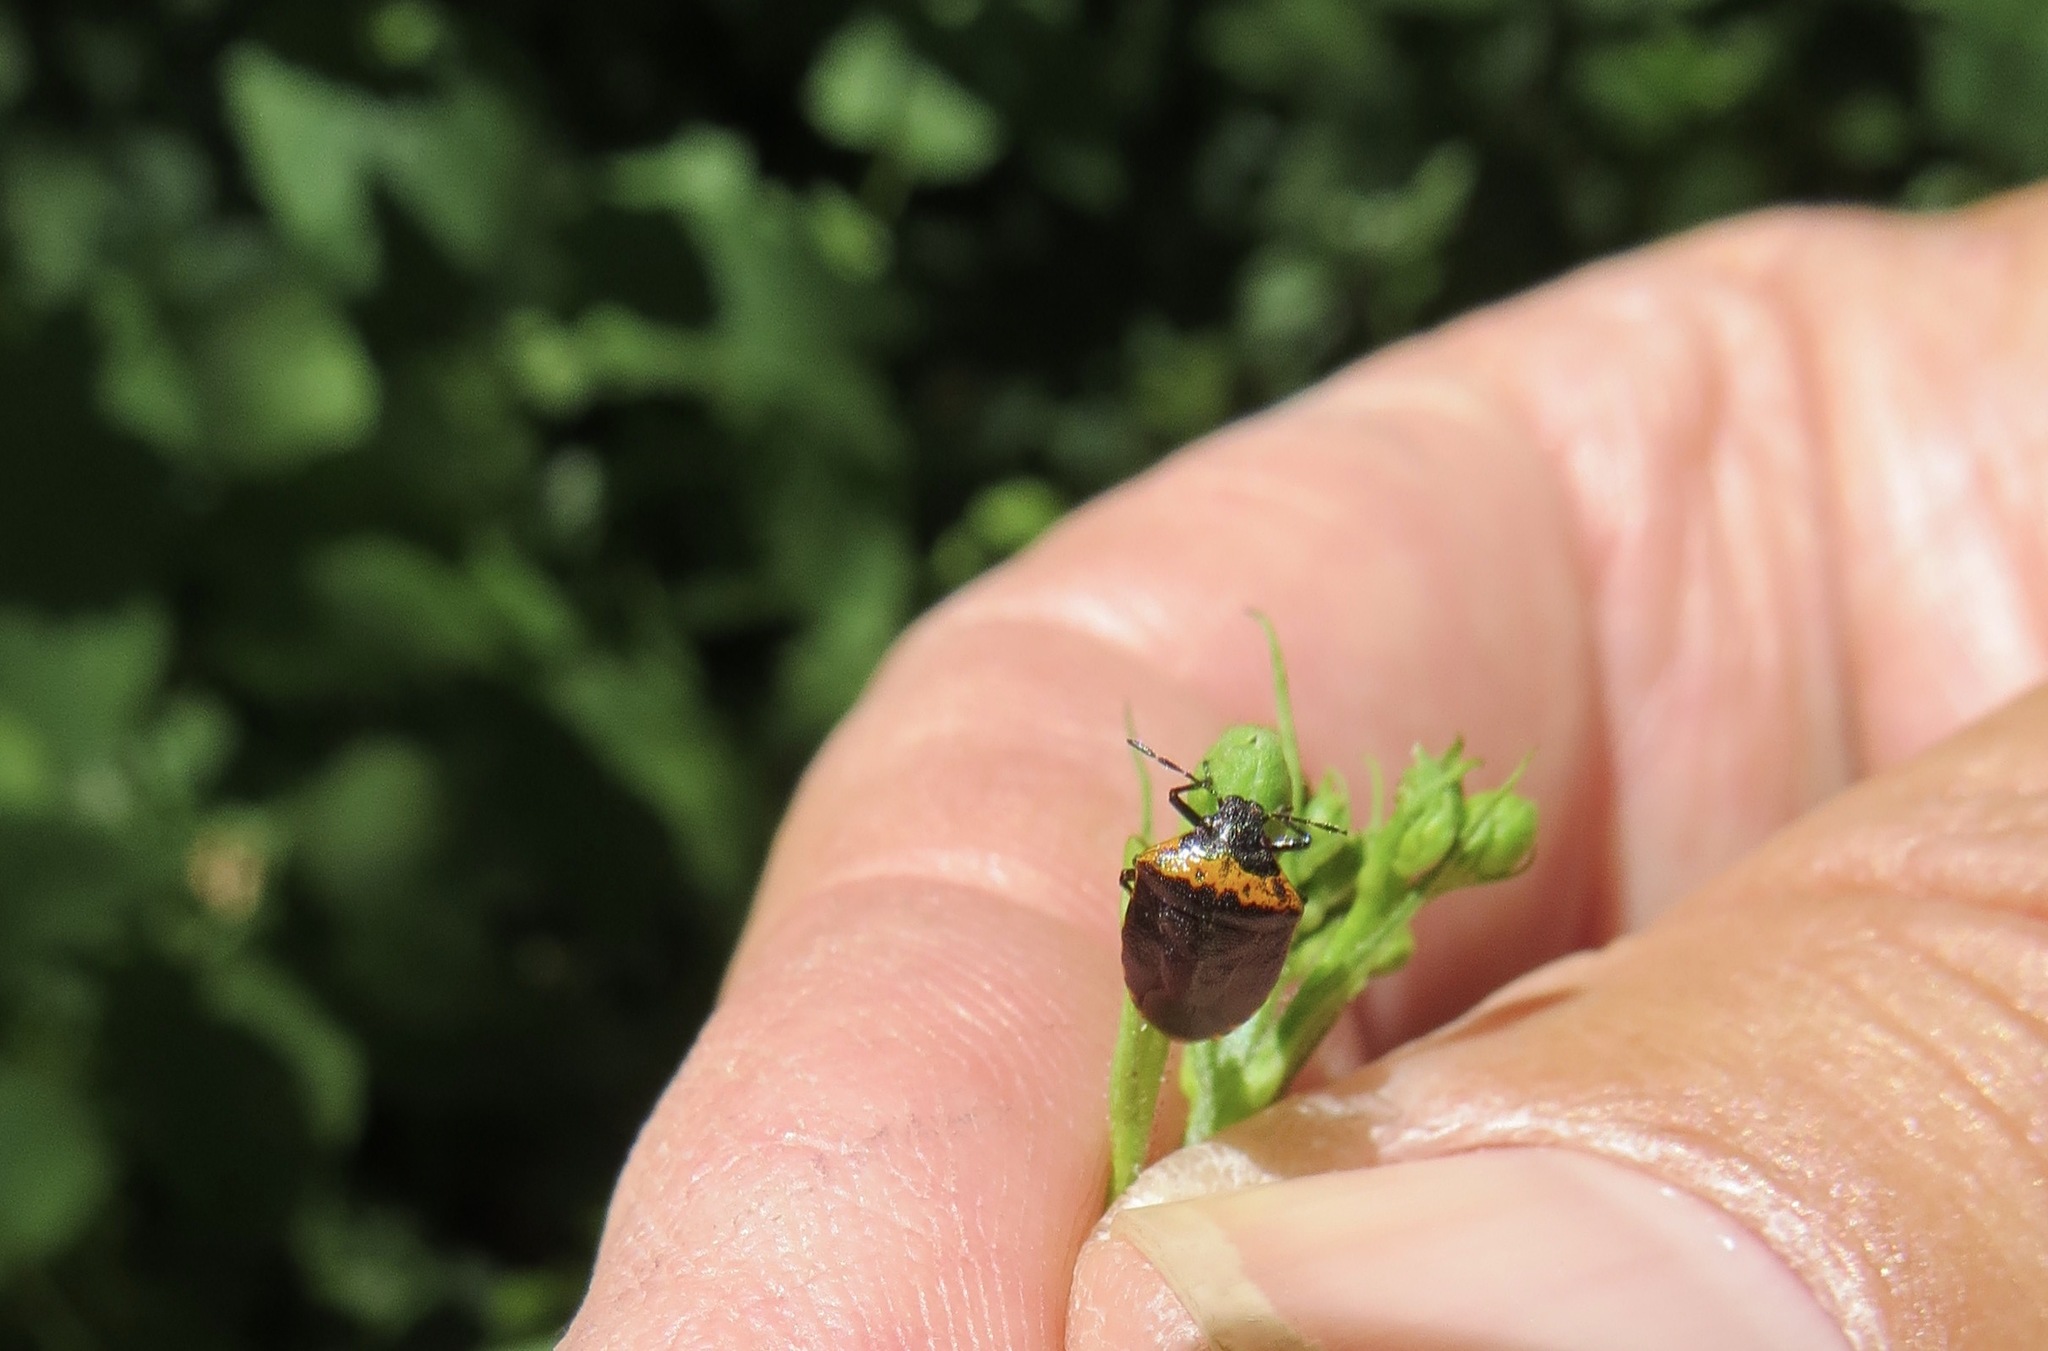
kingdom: Animalia
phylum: Arthropoda
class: Insecta
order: Hemiptera
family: Pentatomidae
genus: Cosmopepla
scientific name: Cosmopepla uhleri
